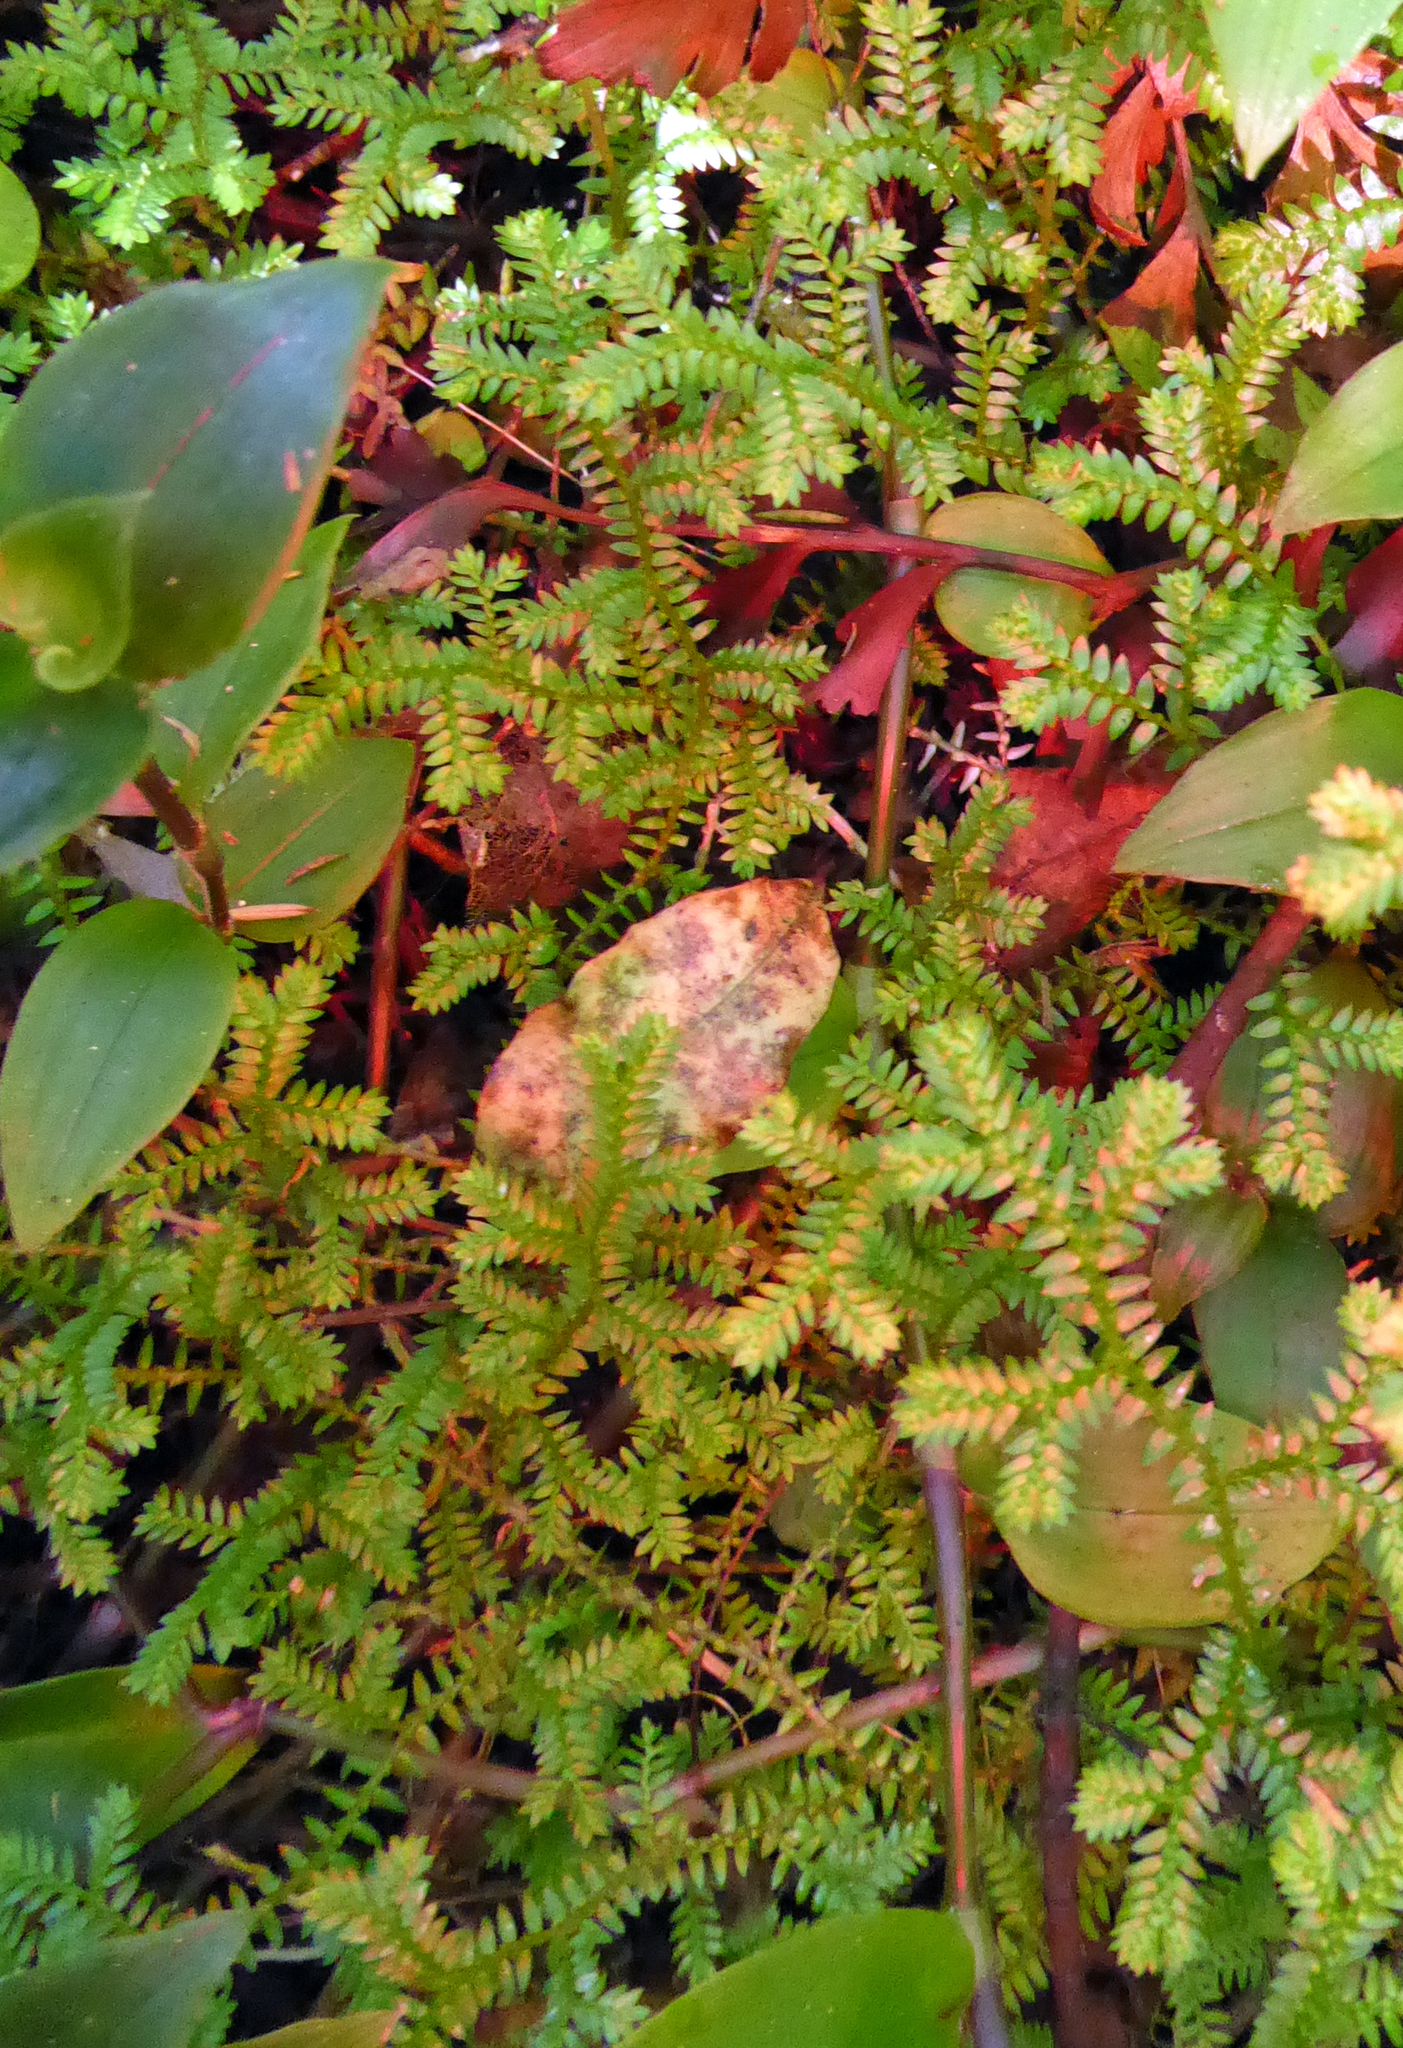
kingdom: Plantae
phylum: Tracheophyta
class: Lycopodiopsida
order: Selaginellales
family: Selaginellaceae
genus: Selaginella
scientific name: Selaginella kraussiana
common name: Krauss' spikemoss
